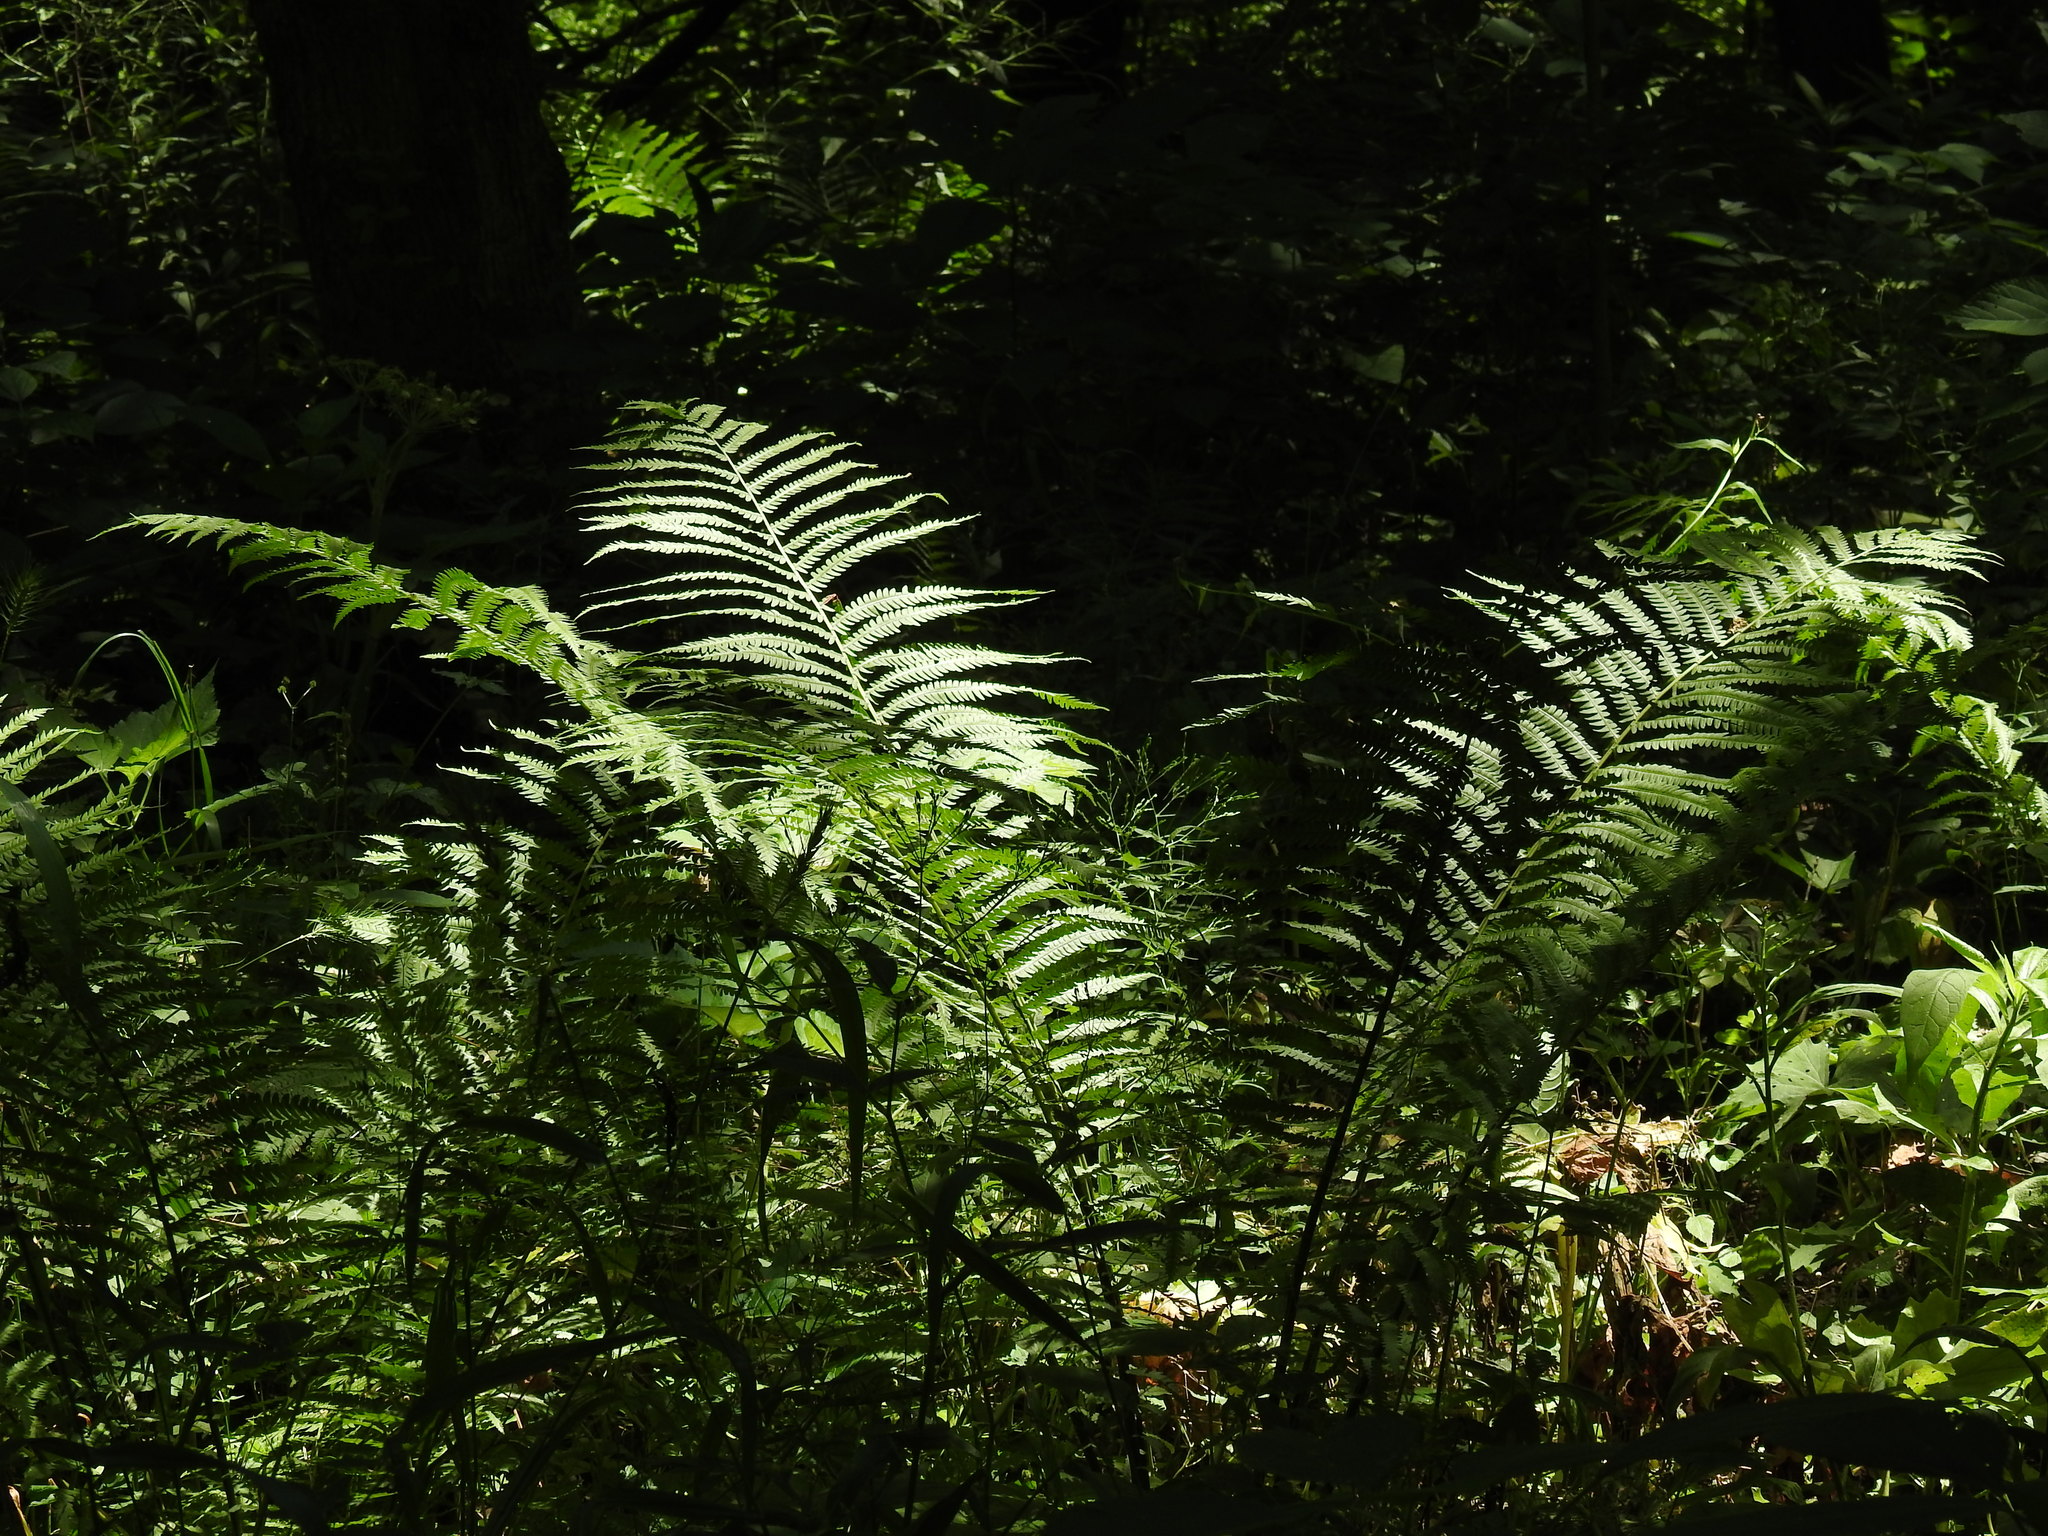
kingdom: Plantae
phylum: Tracheophyta
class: Polypodiopsida
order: Polypodiales
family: Onocleaceae
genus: Matteuccia
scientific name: Matteuccia struthiopteris
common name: Ostrich fern
